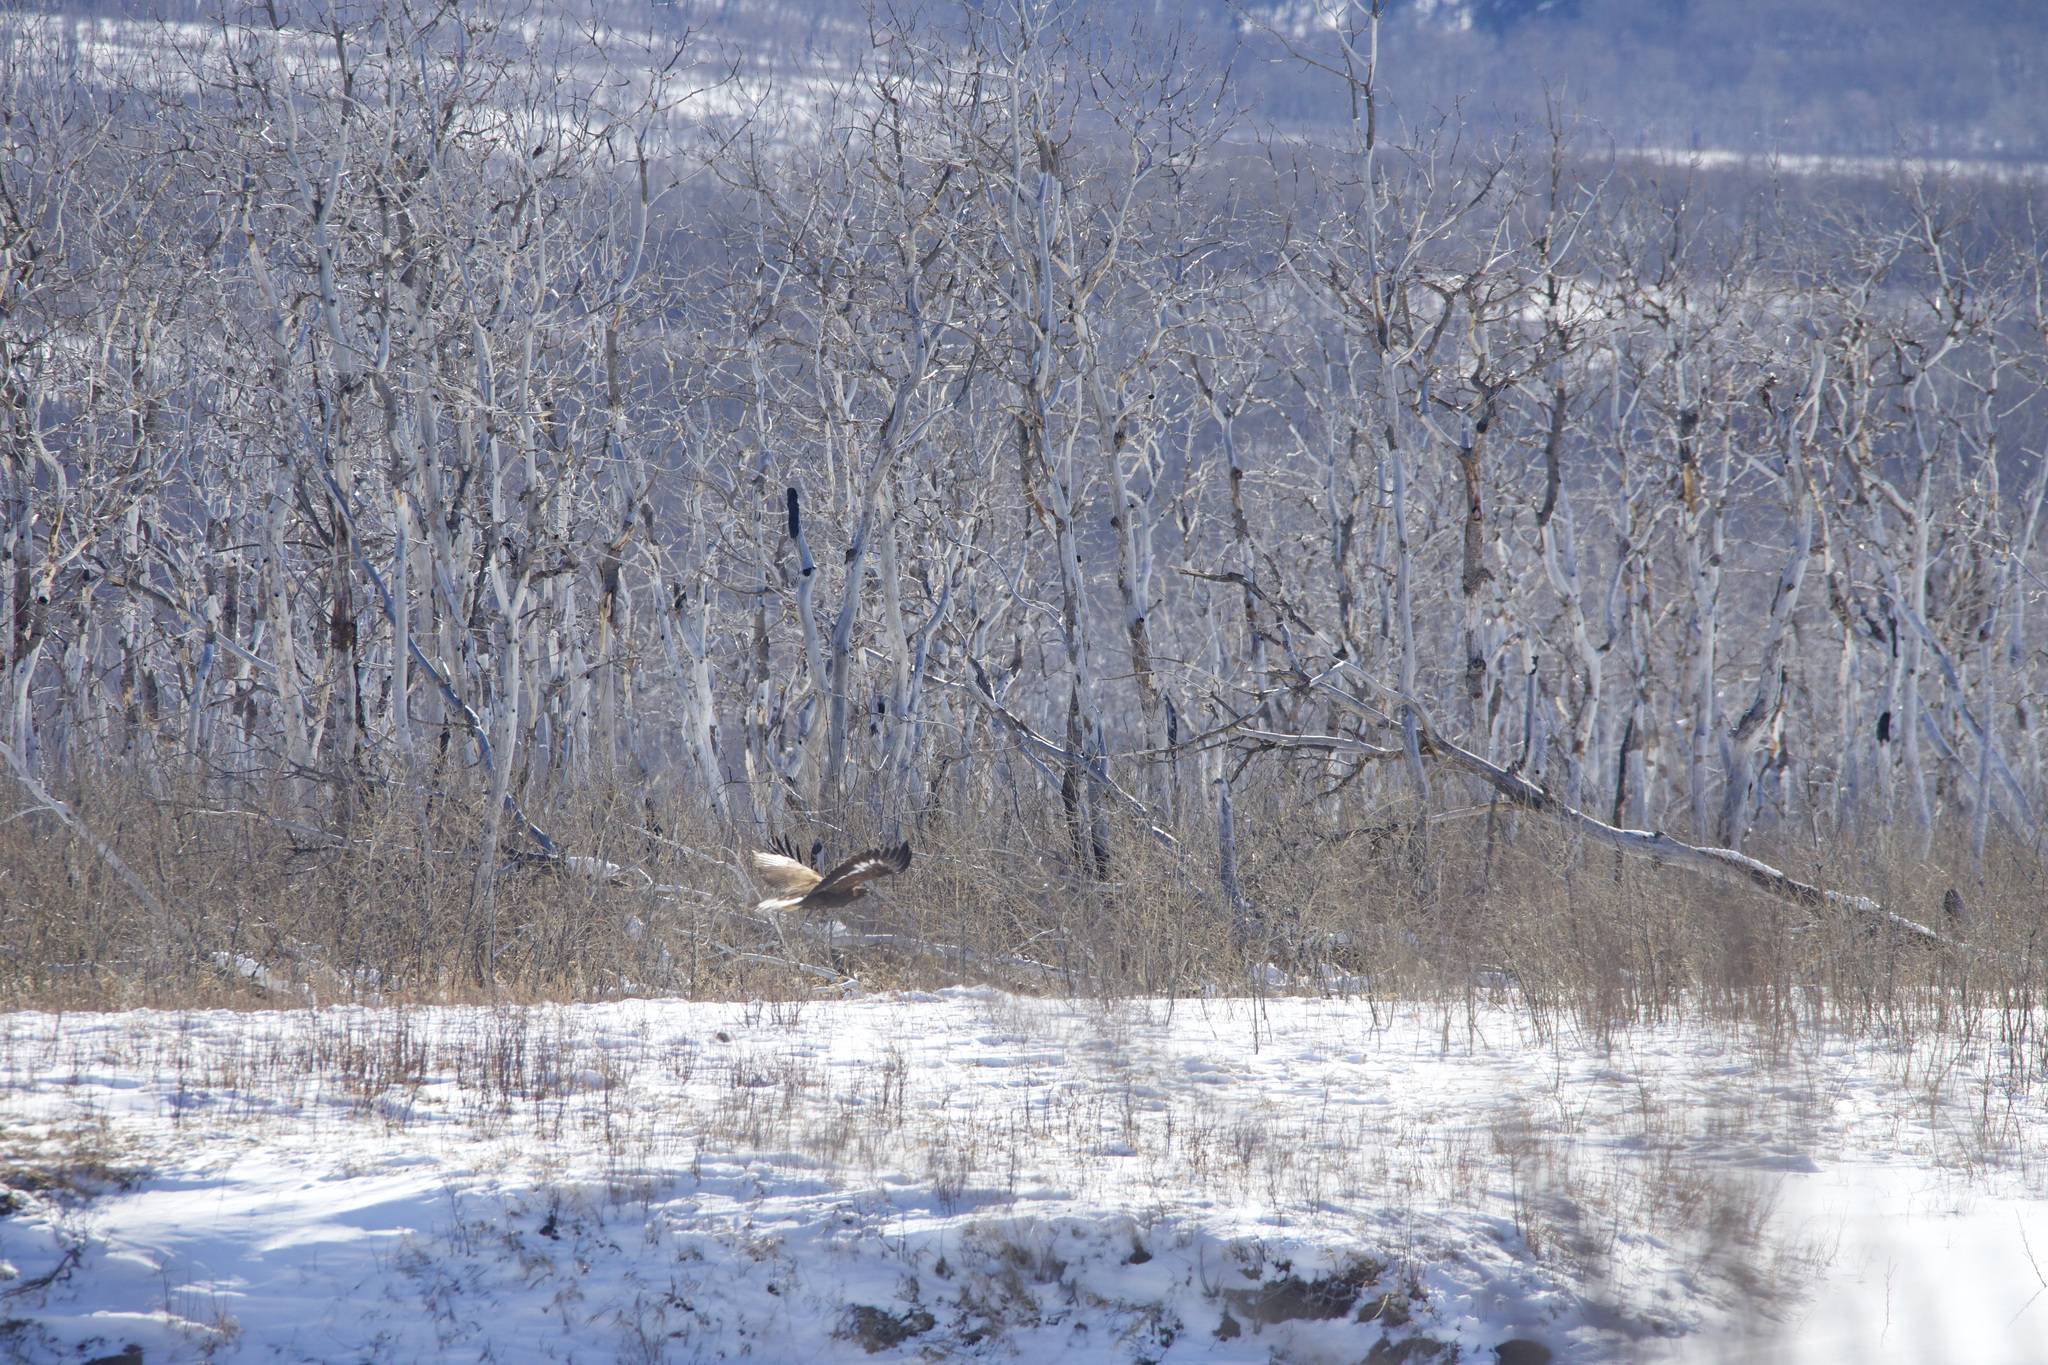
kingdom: Animalia
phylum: Chordata
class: Aves
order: Accipitriformes
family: Accipitridae
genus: Aquila
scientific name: Aquila chrysaetos
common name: Golden eagle
